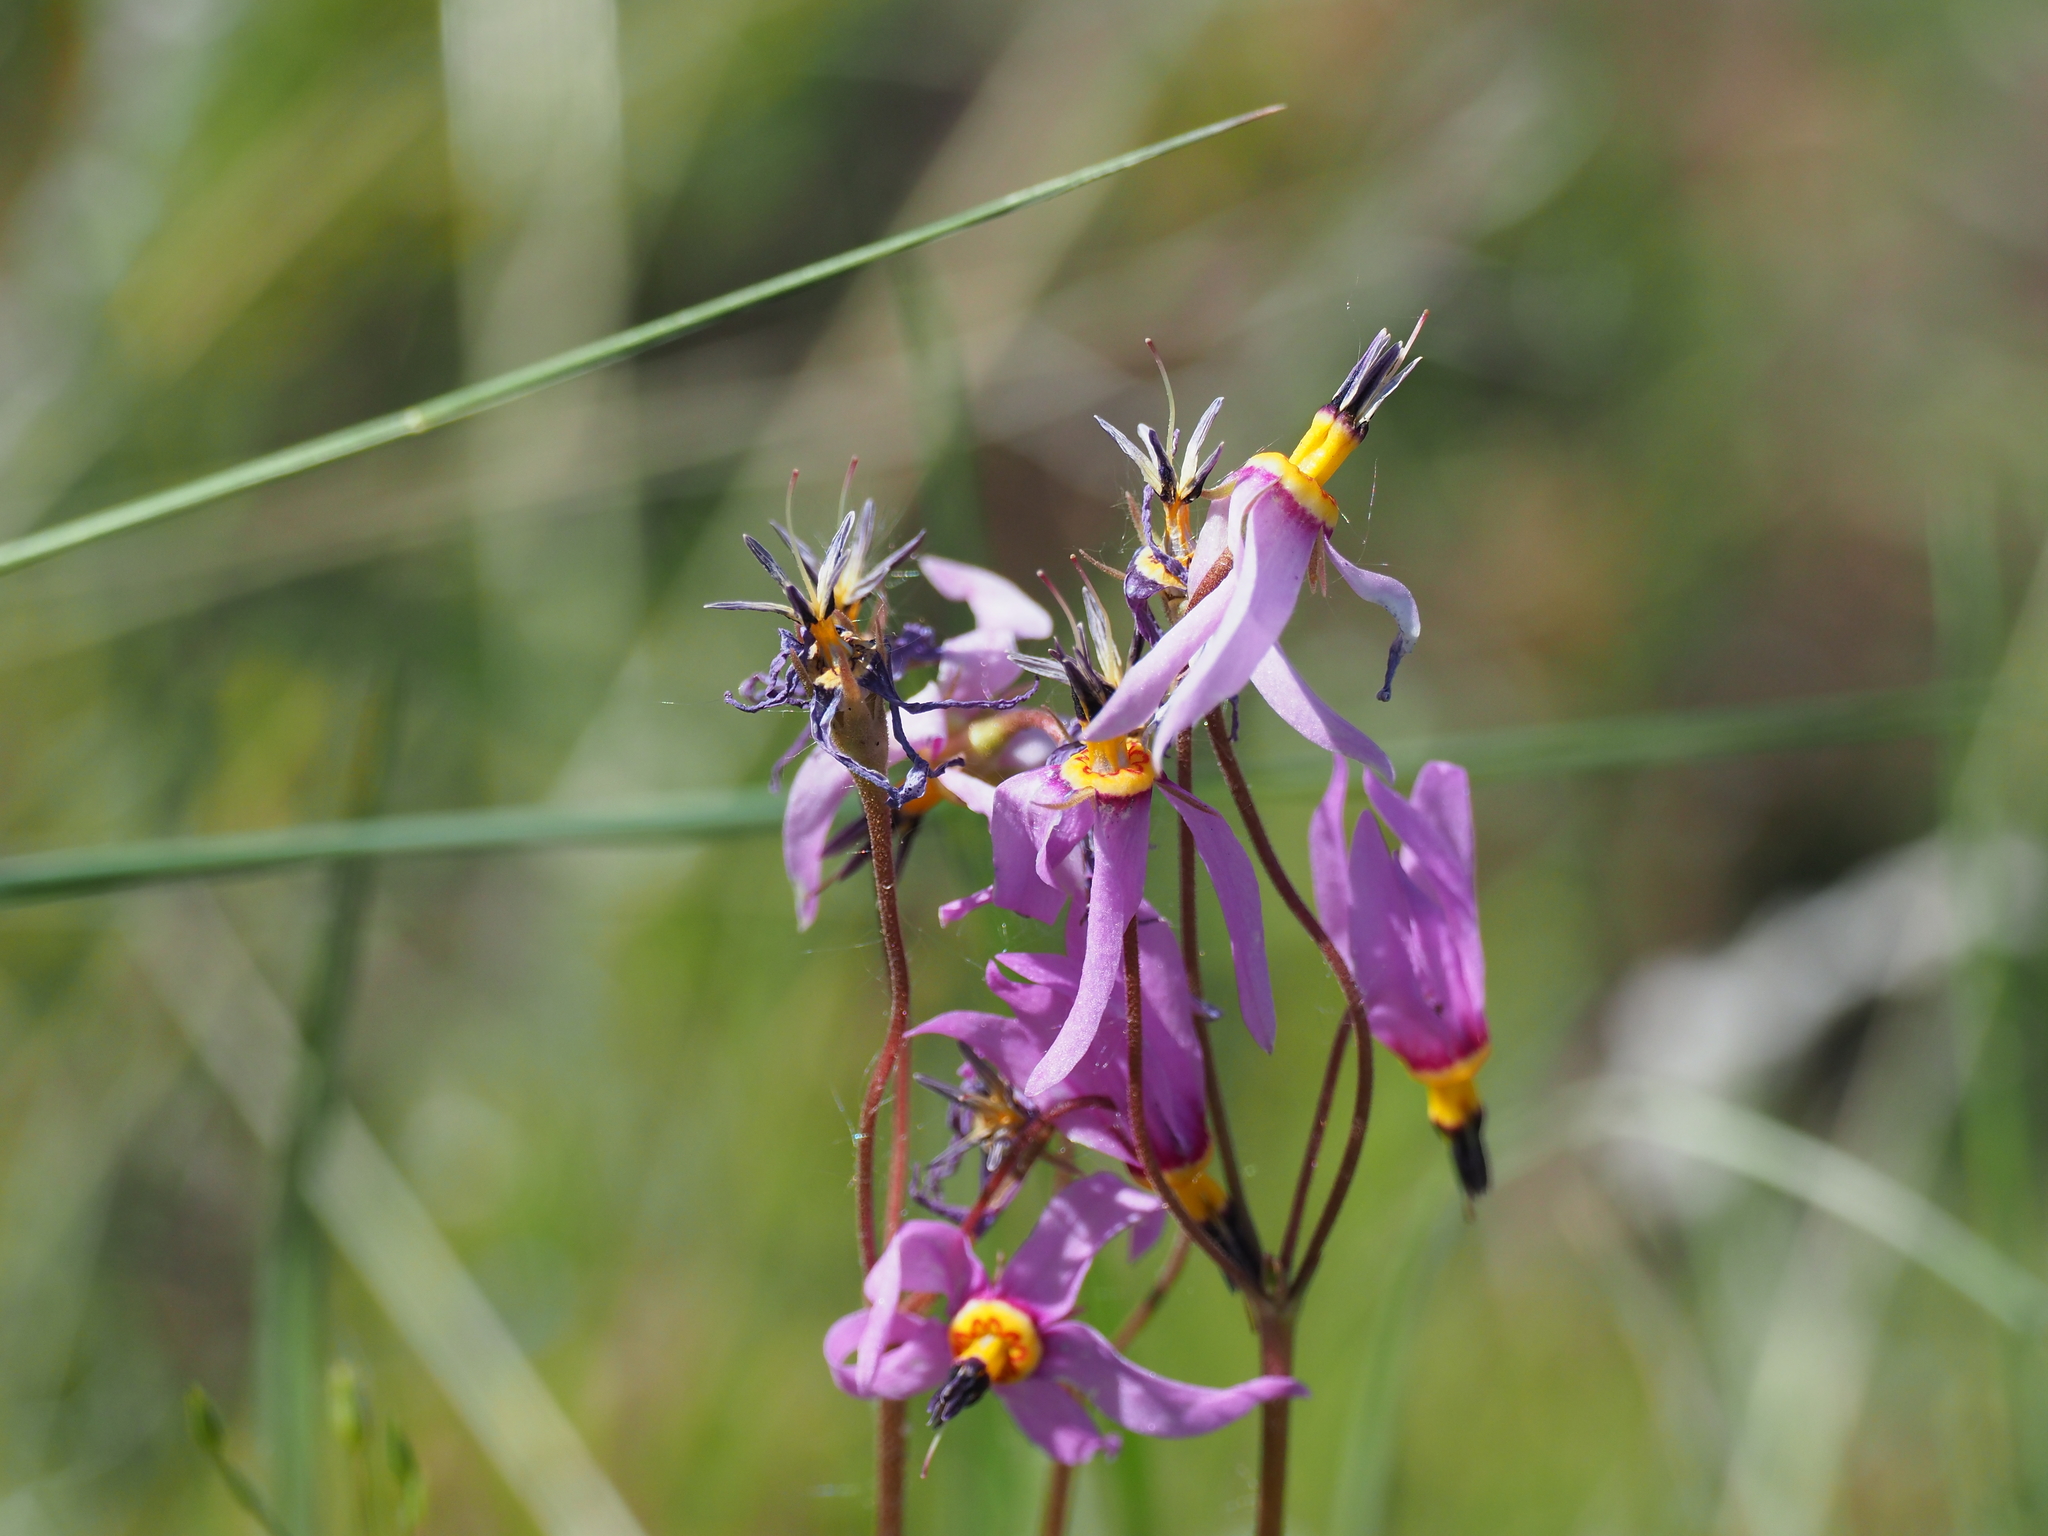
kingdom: Plantae
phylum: Tracheophyta
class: Magnoliopsida
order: Ericales
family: Primulaceae
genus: Dodecatheon
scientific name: Dodecatheon pulchellum
